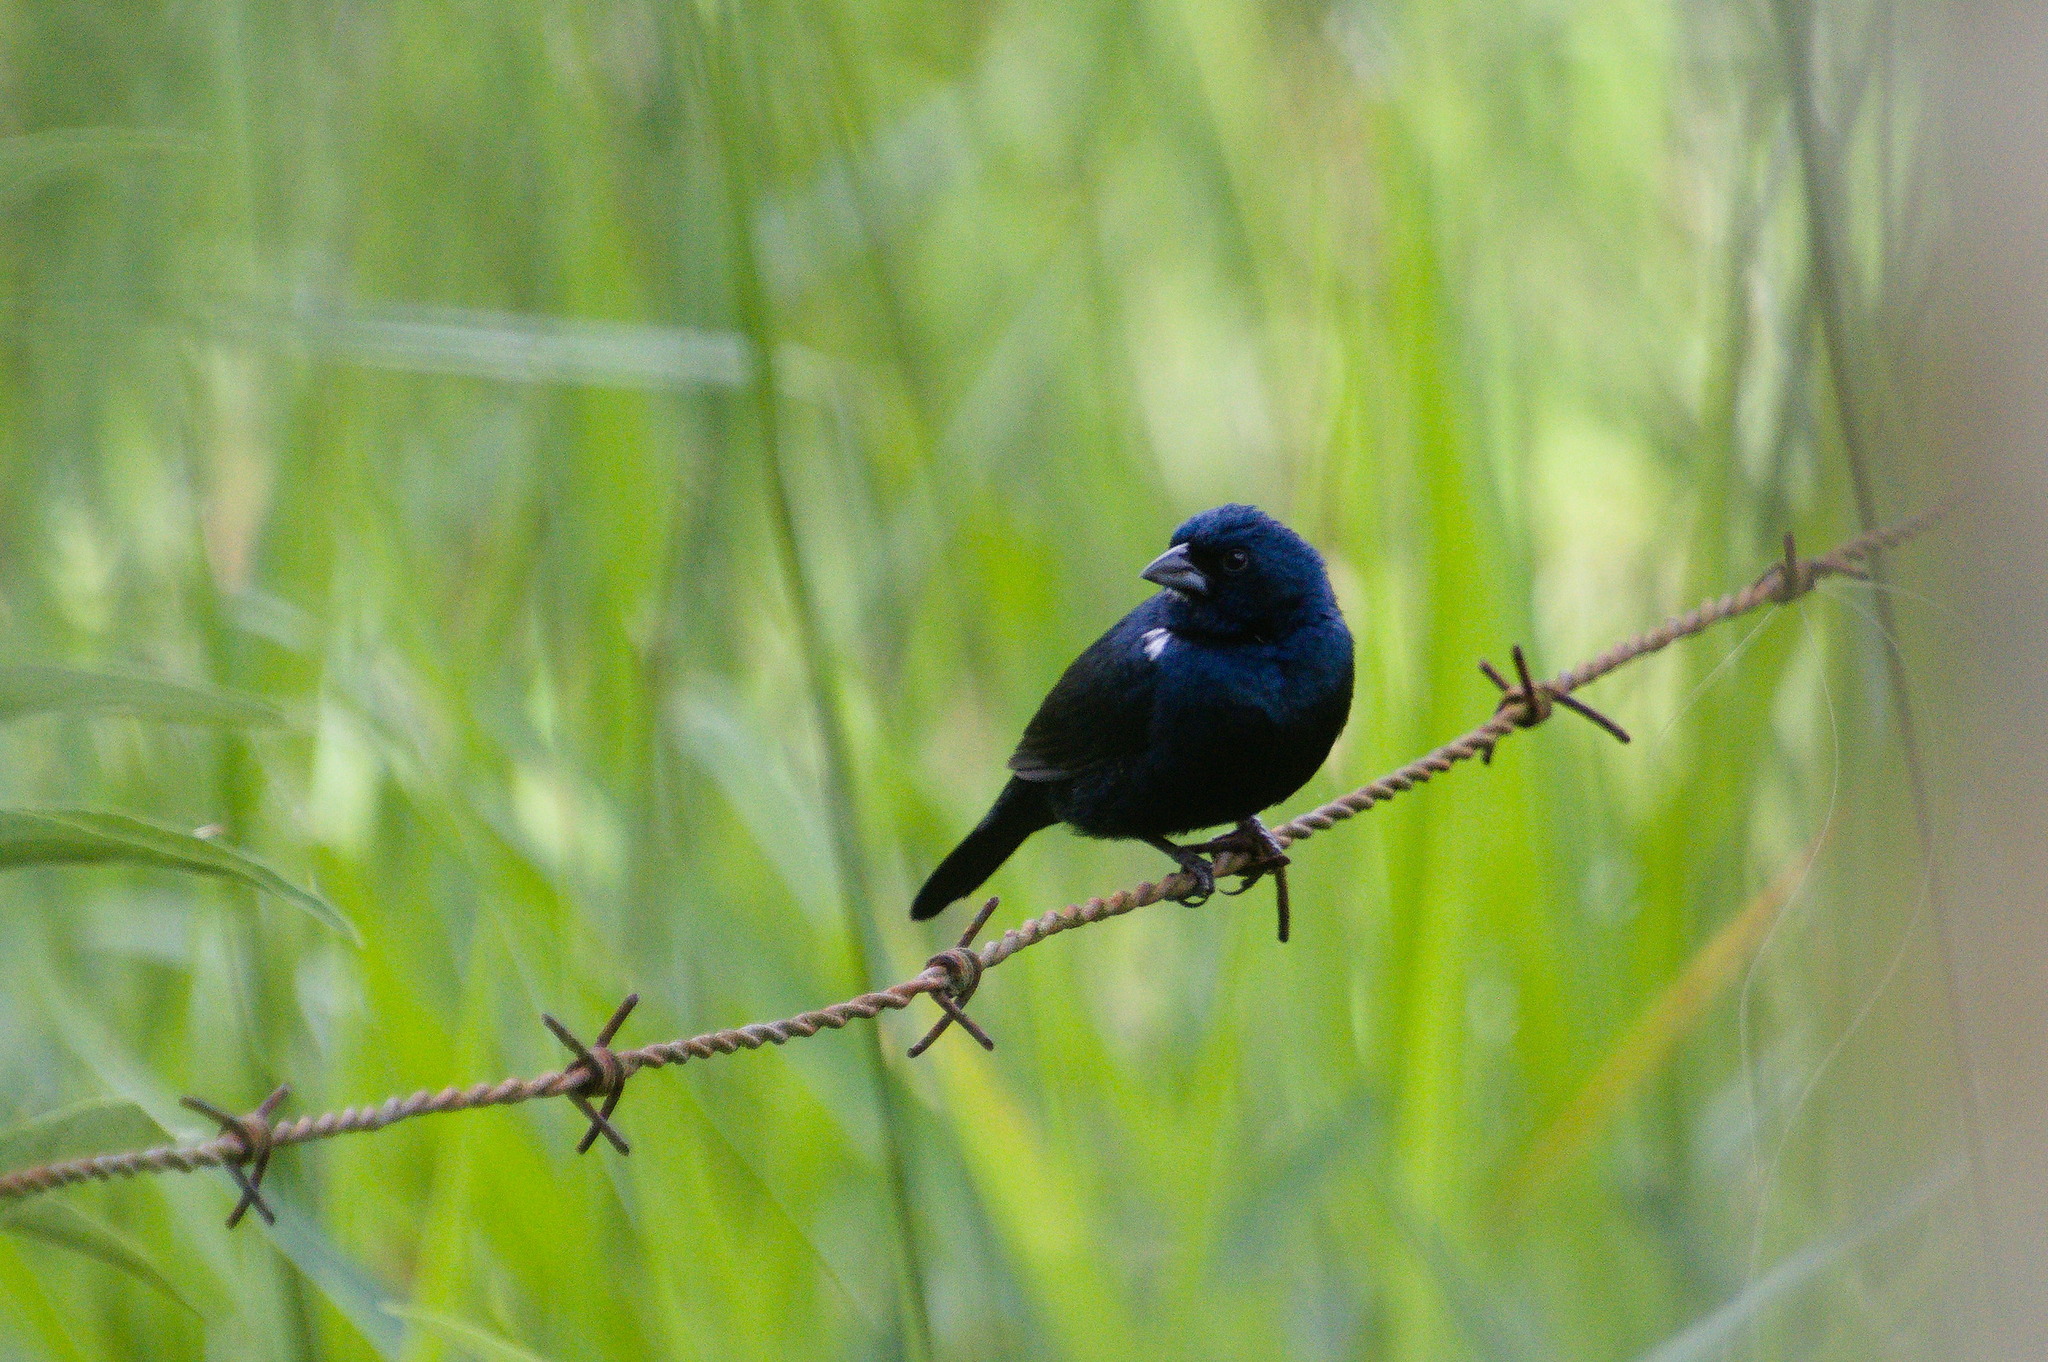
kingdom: Animalia
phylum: Chordata
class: Aves
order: Passeriformes
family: Thraupidae
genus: Volatinia
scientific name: Volatinia jacarina
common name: Blue-black grassquit
